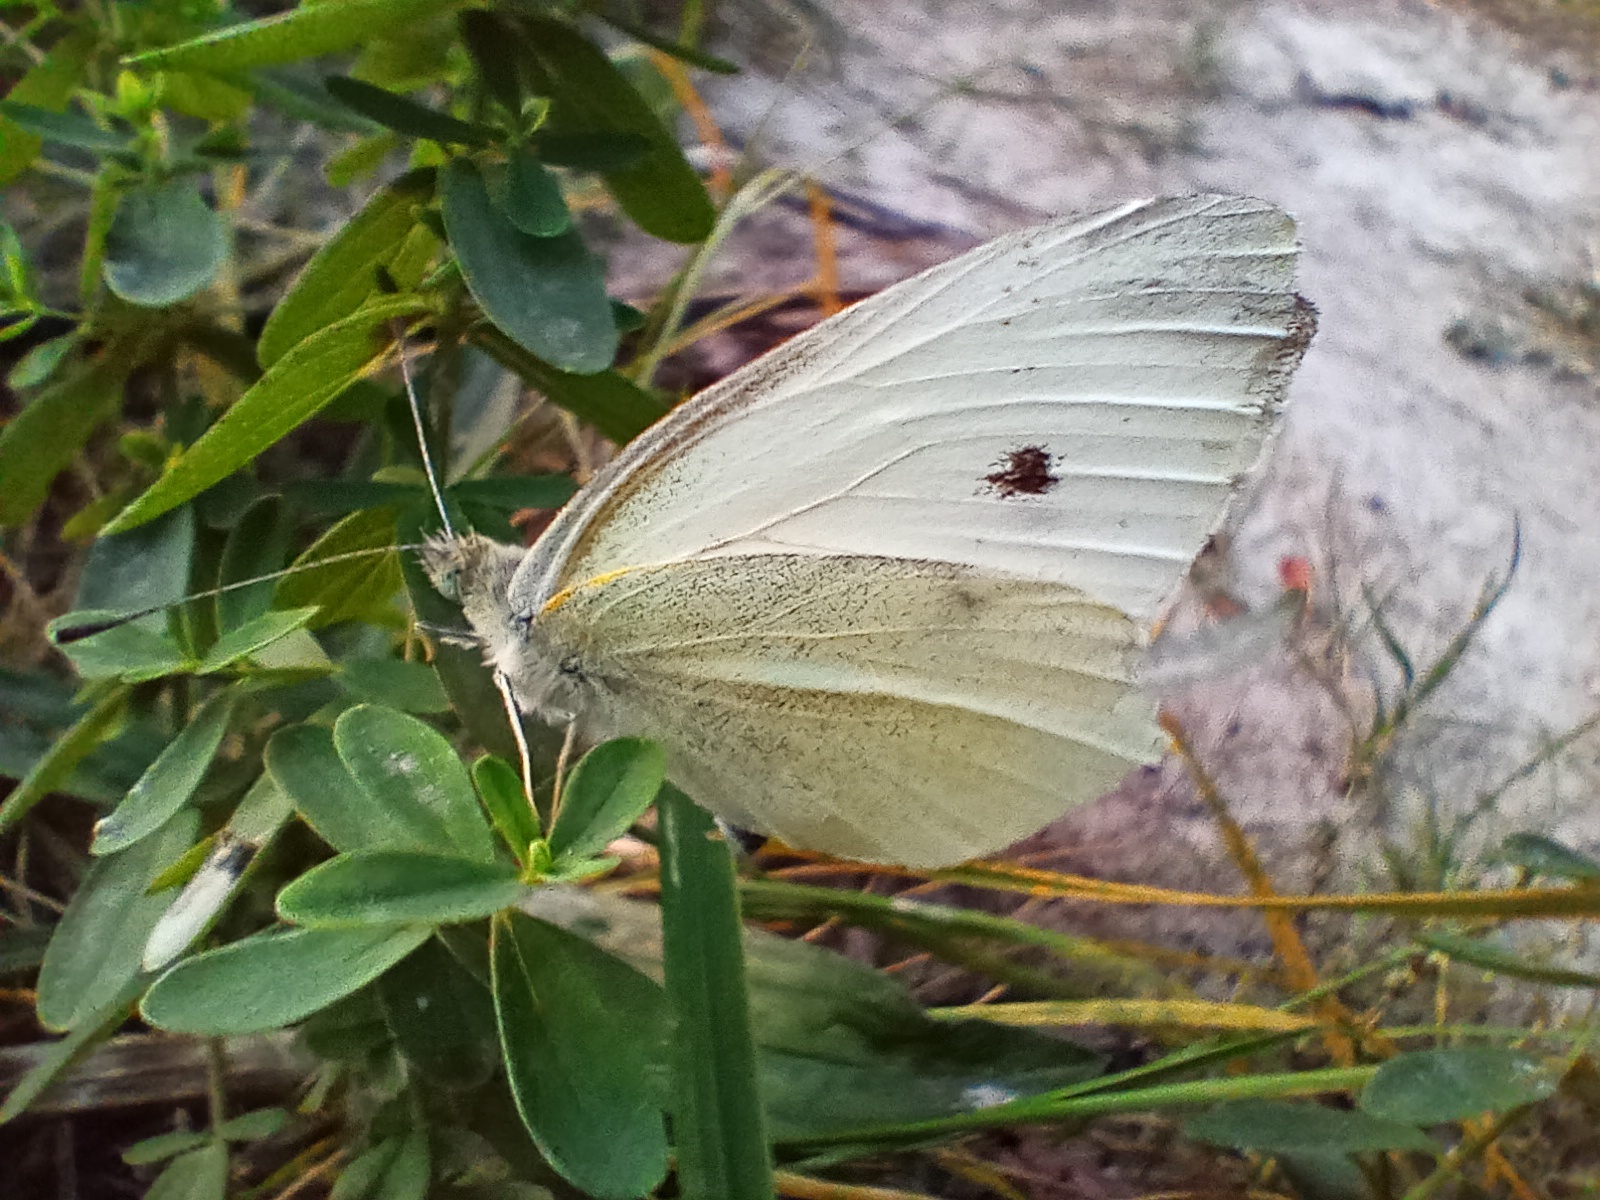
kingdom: Animalia
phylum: Arthropoda
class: Insecta
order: Lepidoptera
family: Pieridae
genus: Pieris
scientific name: Pieris rapae
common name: Small white
